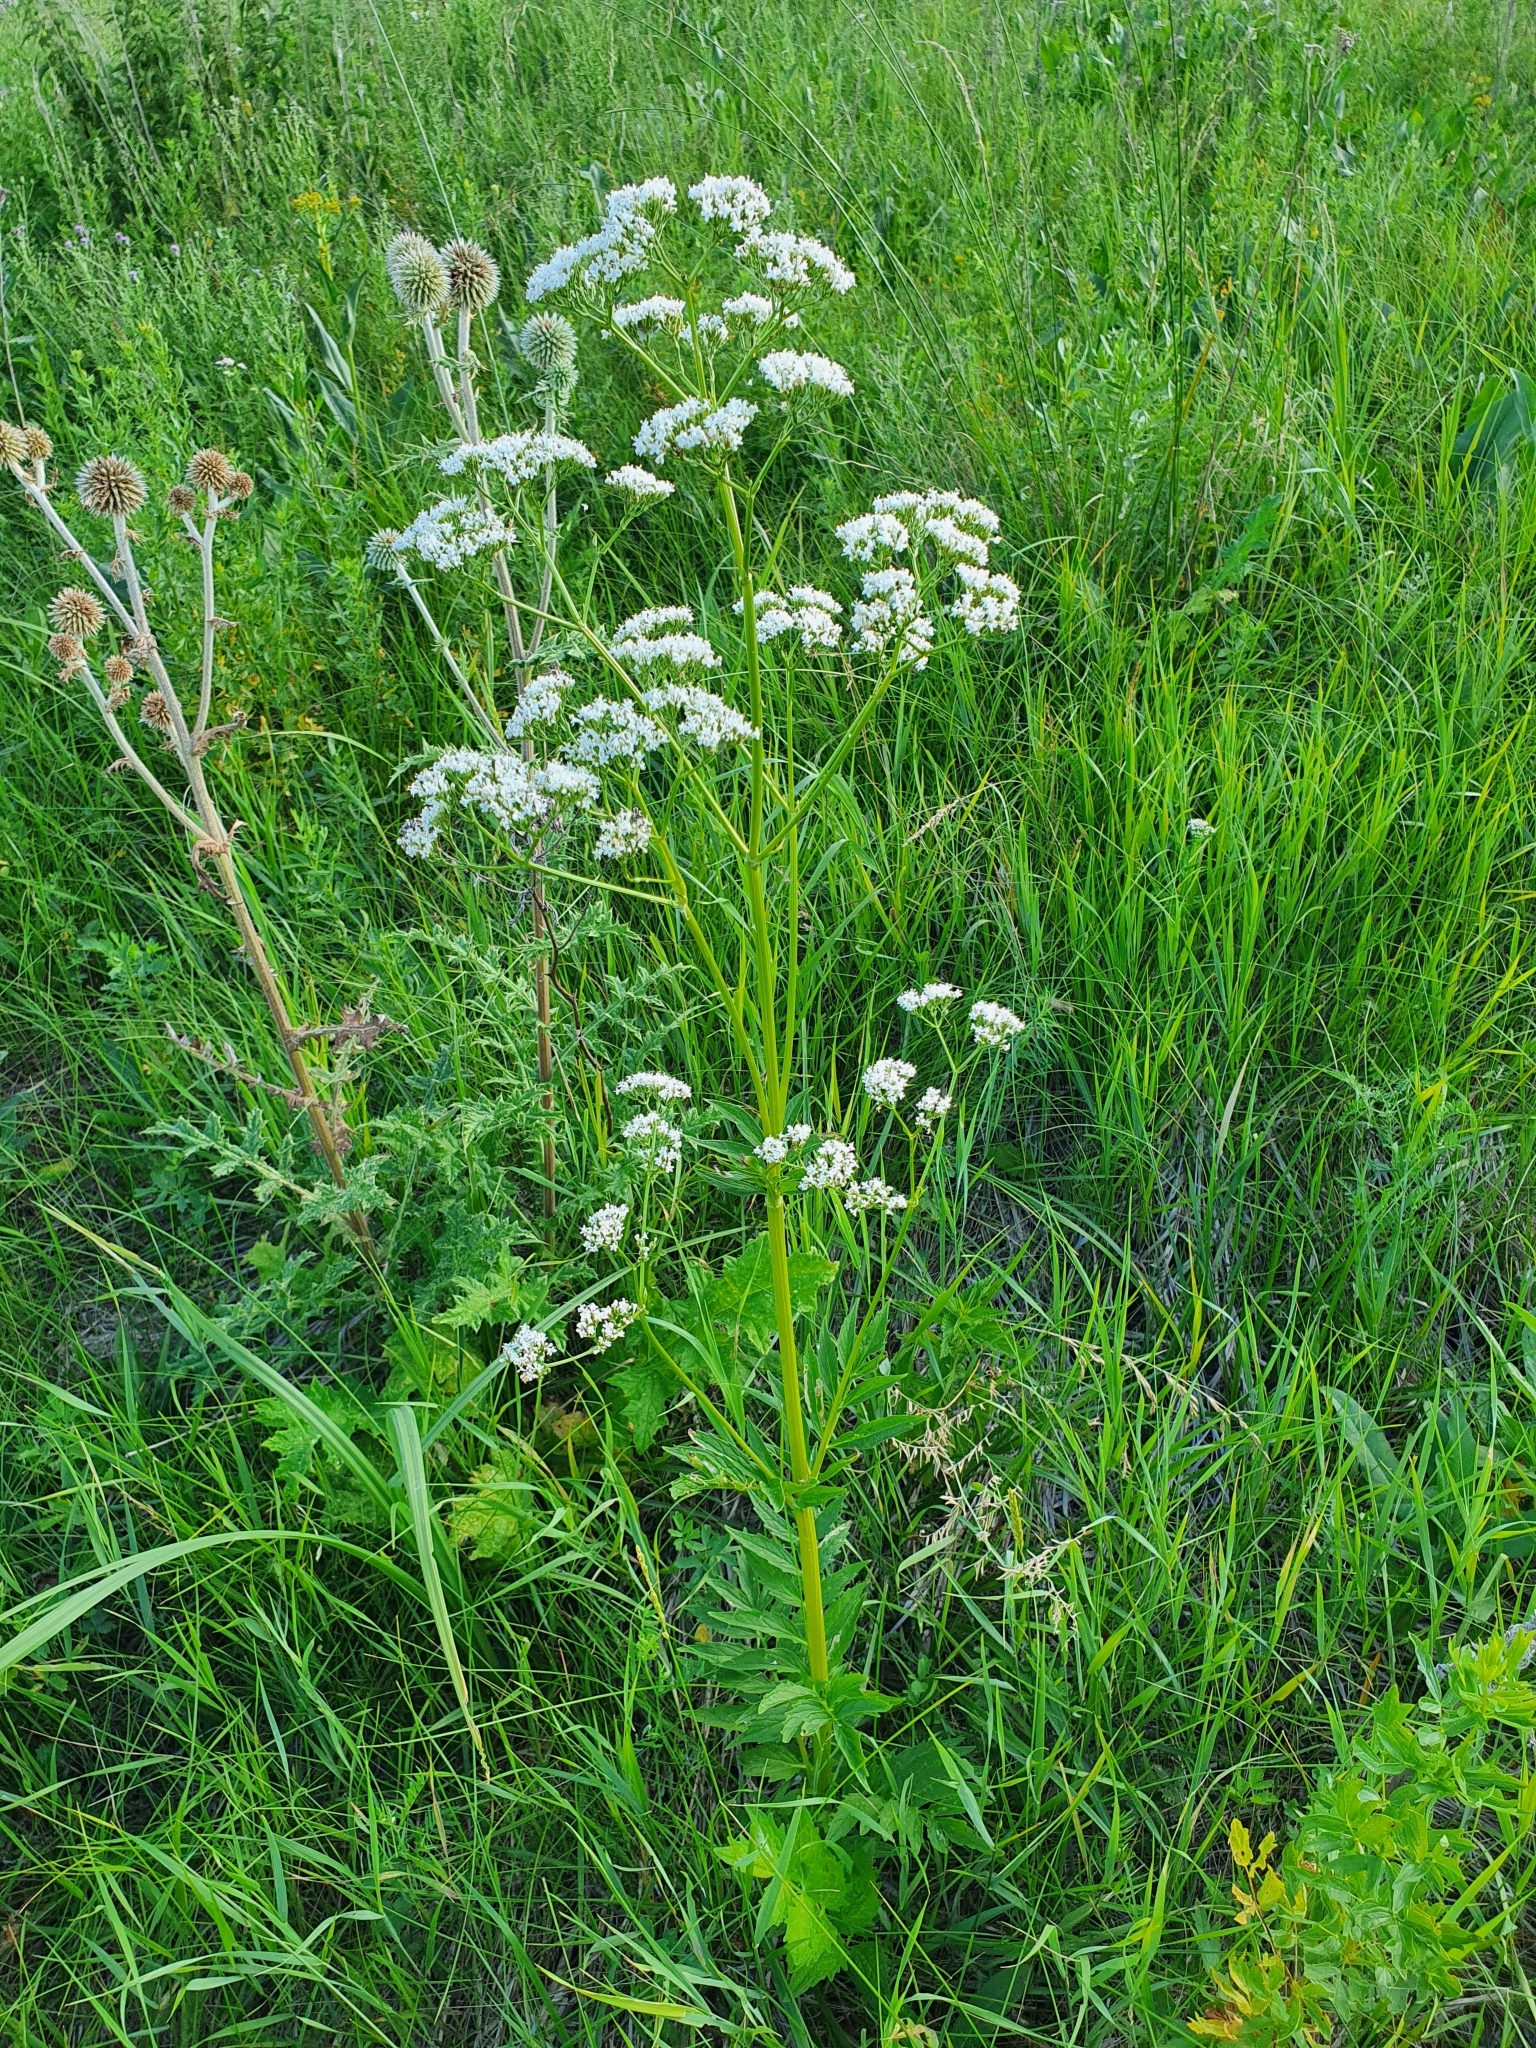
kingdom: Plantae
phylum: Tracheophyta
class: Magnoliopsida
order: Dipsacales
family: Caprifoliaceae
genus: Valeriana
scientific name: Valeriana officinalis
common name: Common valerian
